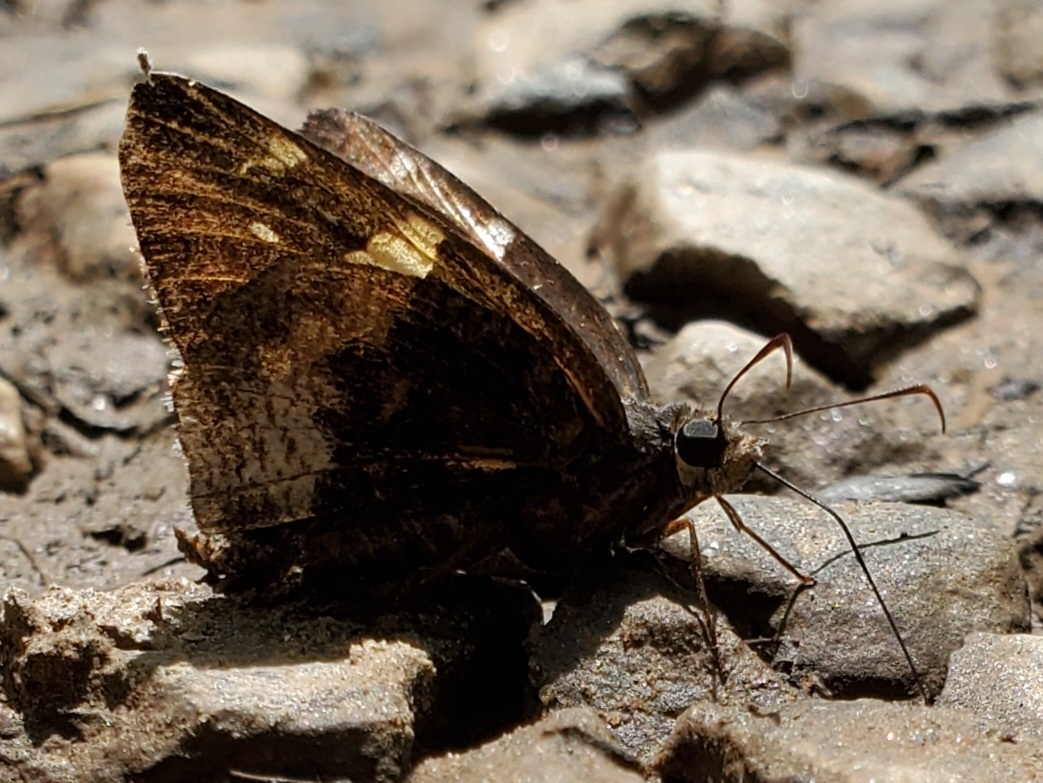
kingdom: Animalia
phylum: Arthropoda
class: Insecta
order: Lepidoptera
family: Hesperiidae
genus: Thorybes
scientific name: Thorybes lyciades
